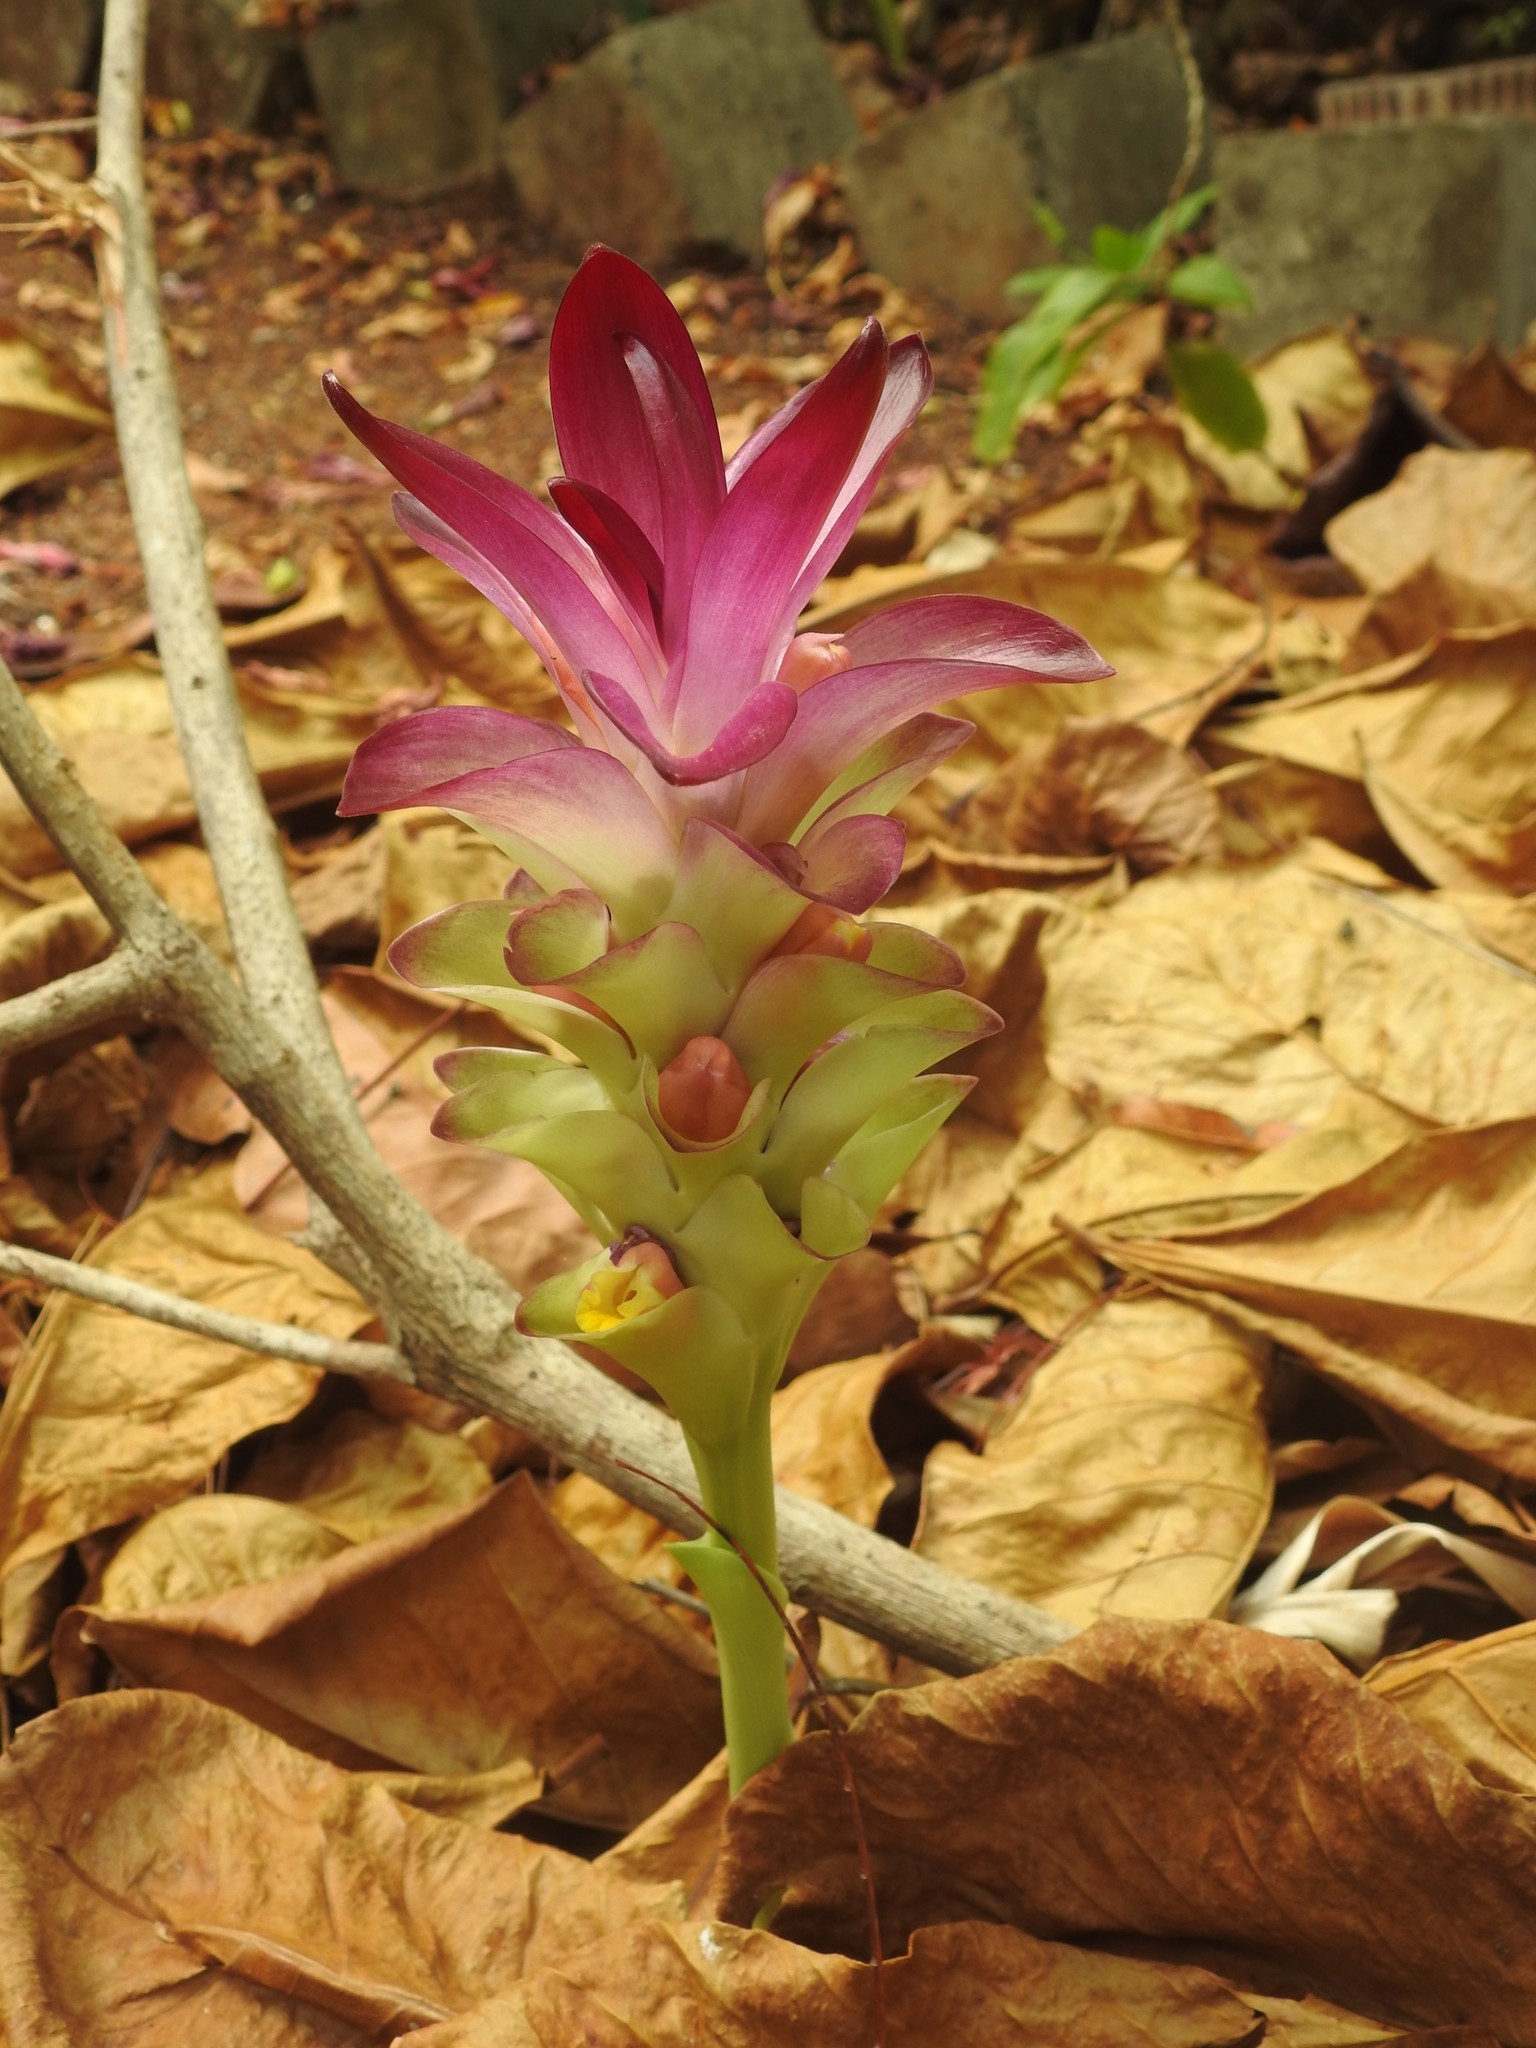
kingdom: Plantae
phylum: Tracheophyta
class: Liliopsida
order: Zingiberales
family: Zingiberaceae
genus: Curcuma
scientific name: Curcuma longa
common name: Turmeric
